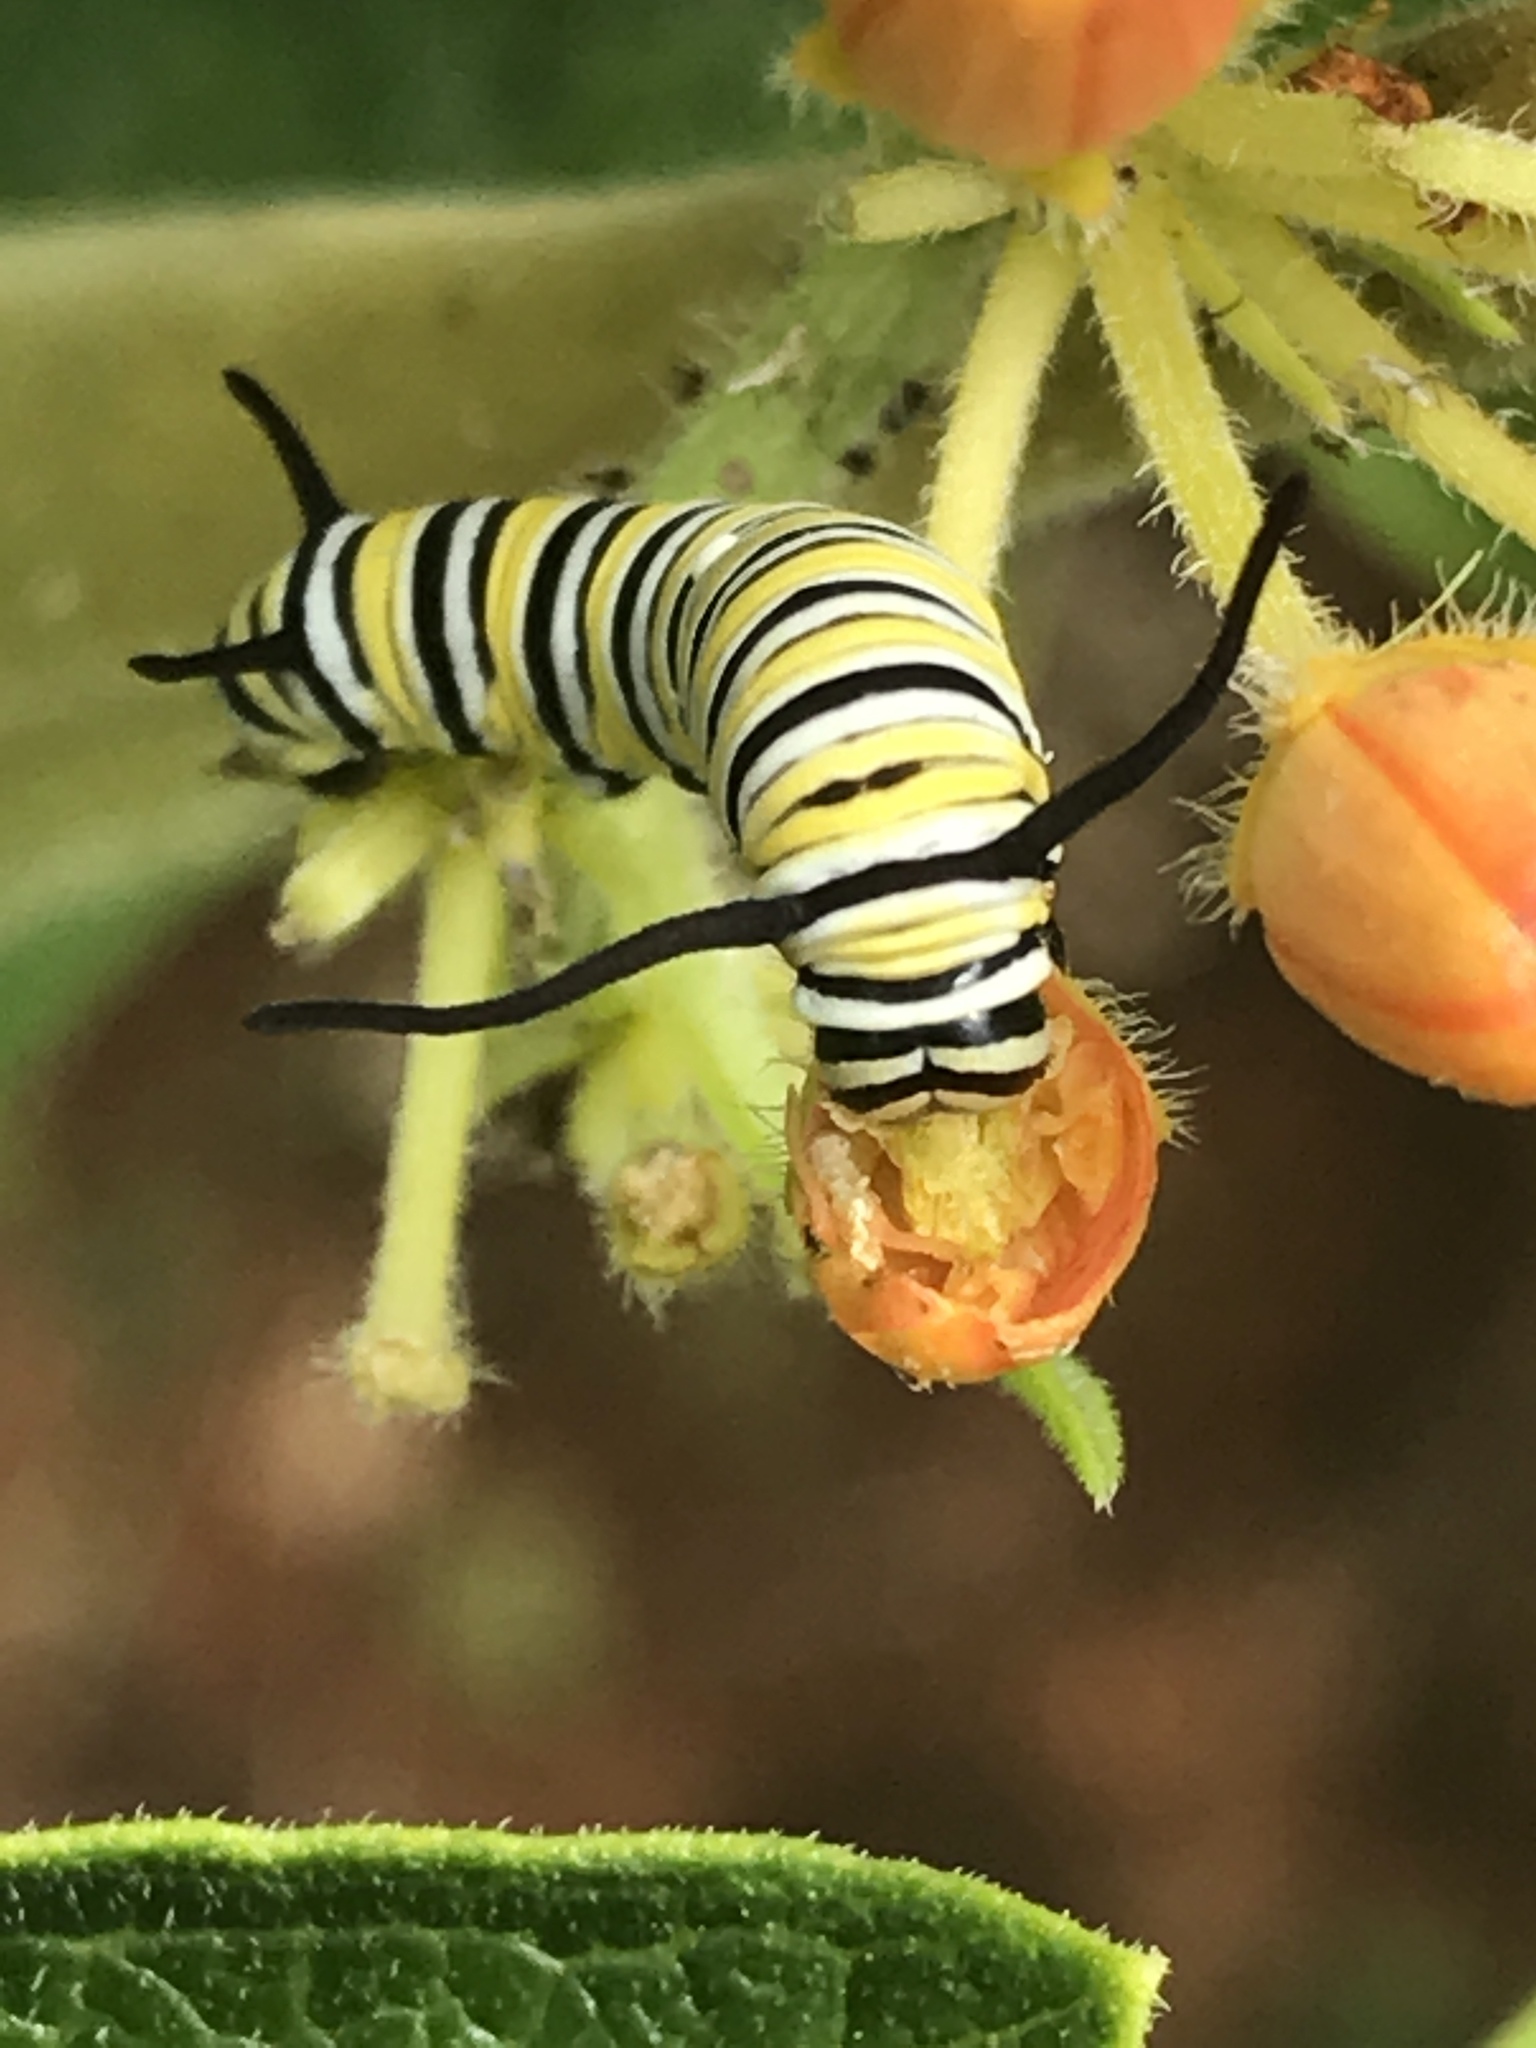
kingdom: Animalia
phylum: Arthropoda
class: Insecta
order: Lepidoptera
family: Nymphalidae
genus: Danaus
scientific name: Danaus plexippus
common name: Monarch
